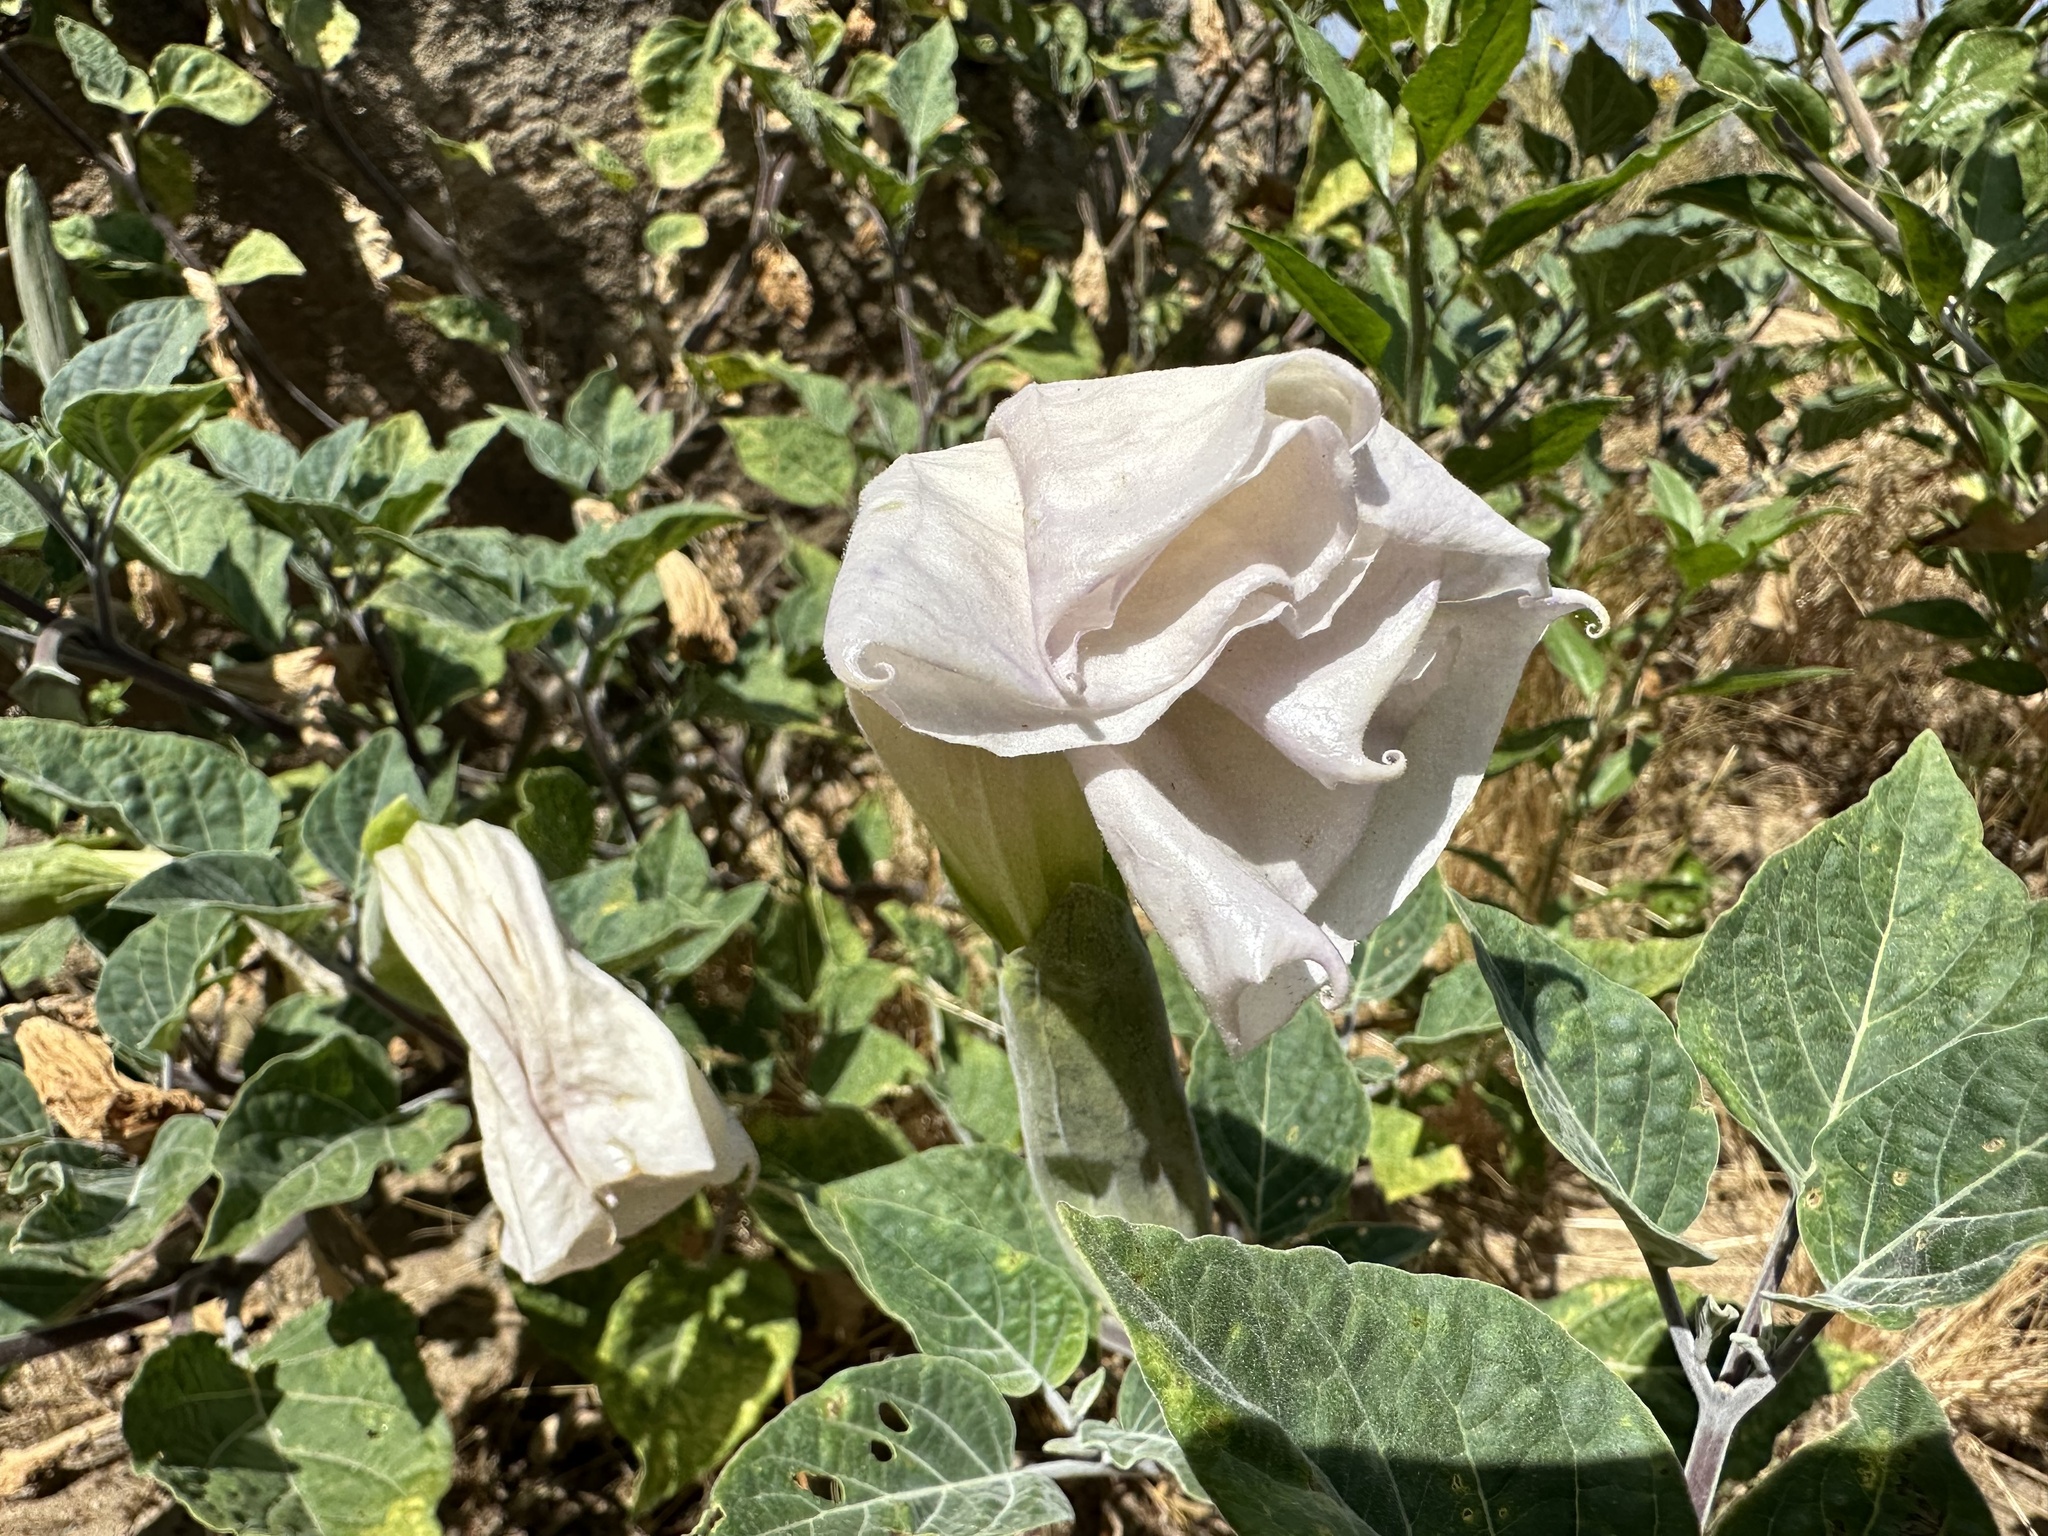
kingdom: Plantae
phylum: Tracheophyta
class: Magnoliopsida
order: Solanales
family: Solanaceae
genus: Datura
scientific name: Datura wrightii
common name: Sacred thorn-apple
